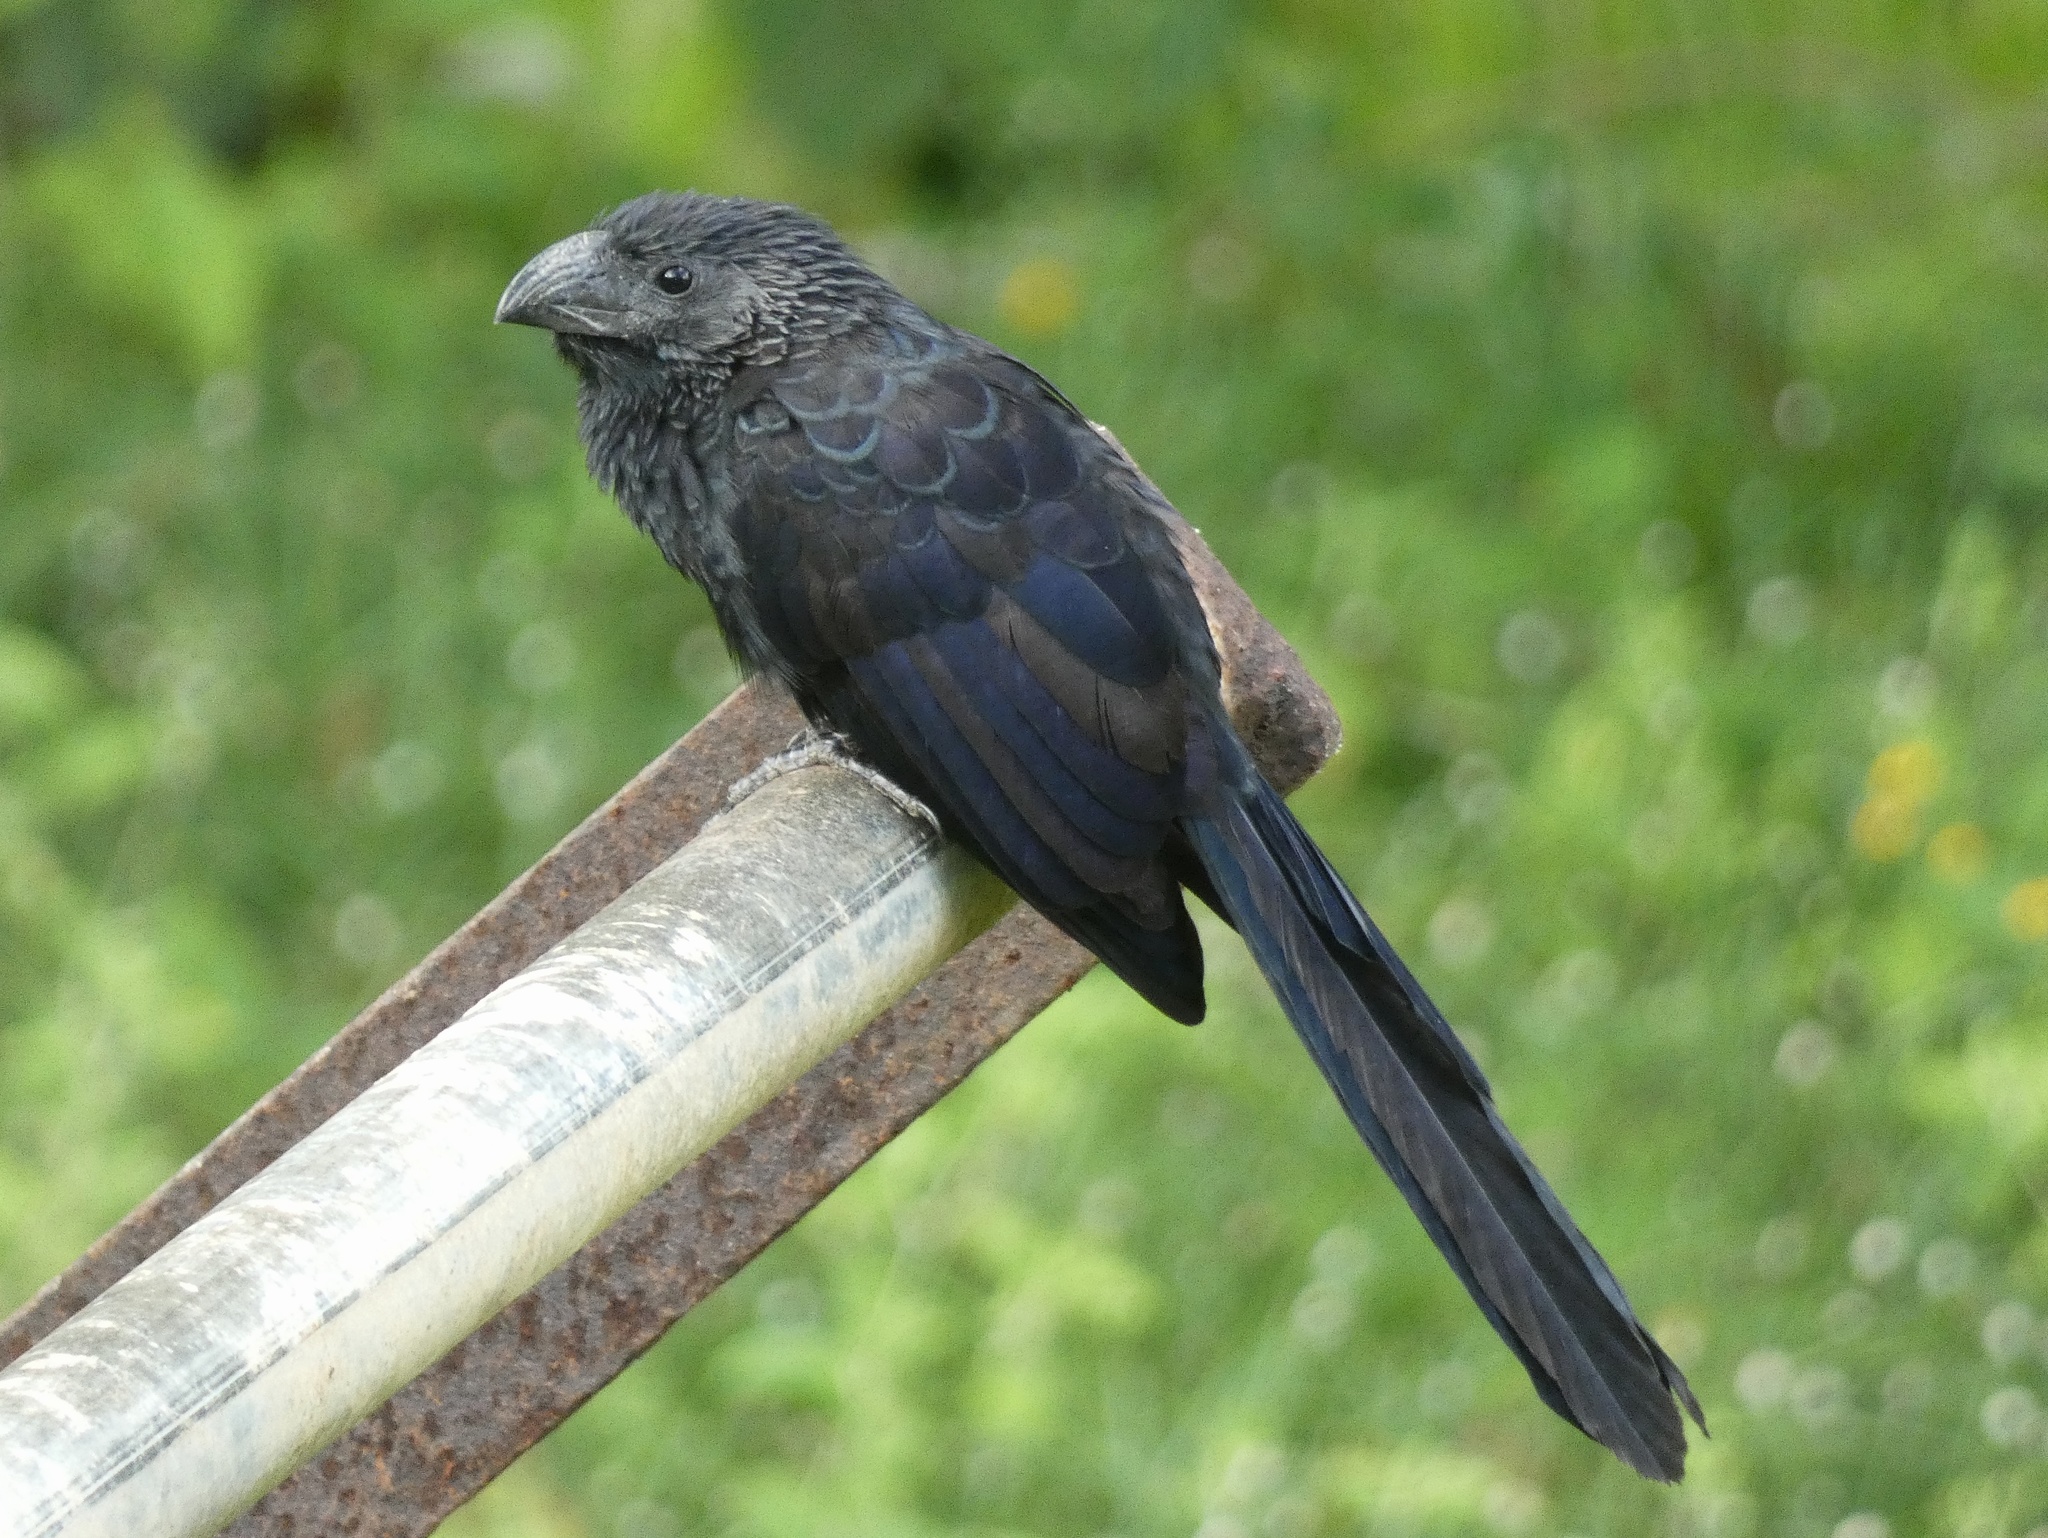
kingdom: Animalia
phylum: Chordata
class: Aves
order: Cuculiformes
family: Cuculidae
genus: Crotophaga
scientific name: Crotophaga sulcirostris
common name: Groove-billed ani
